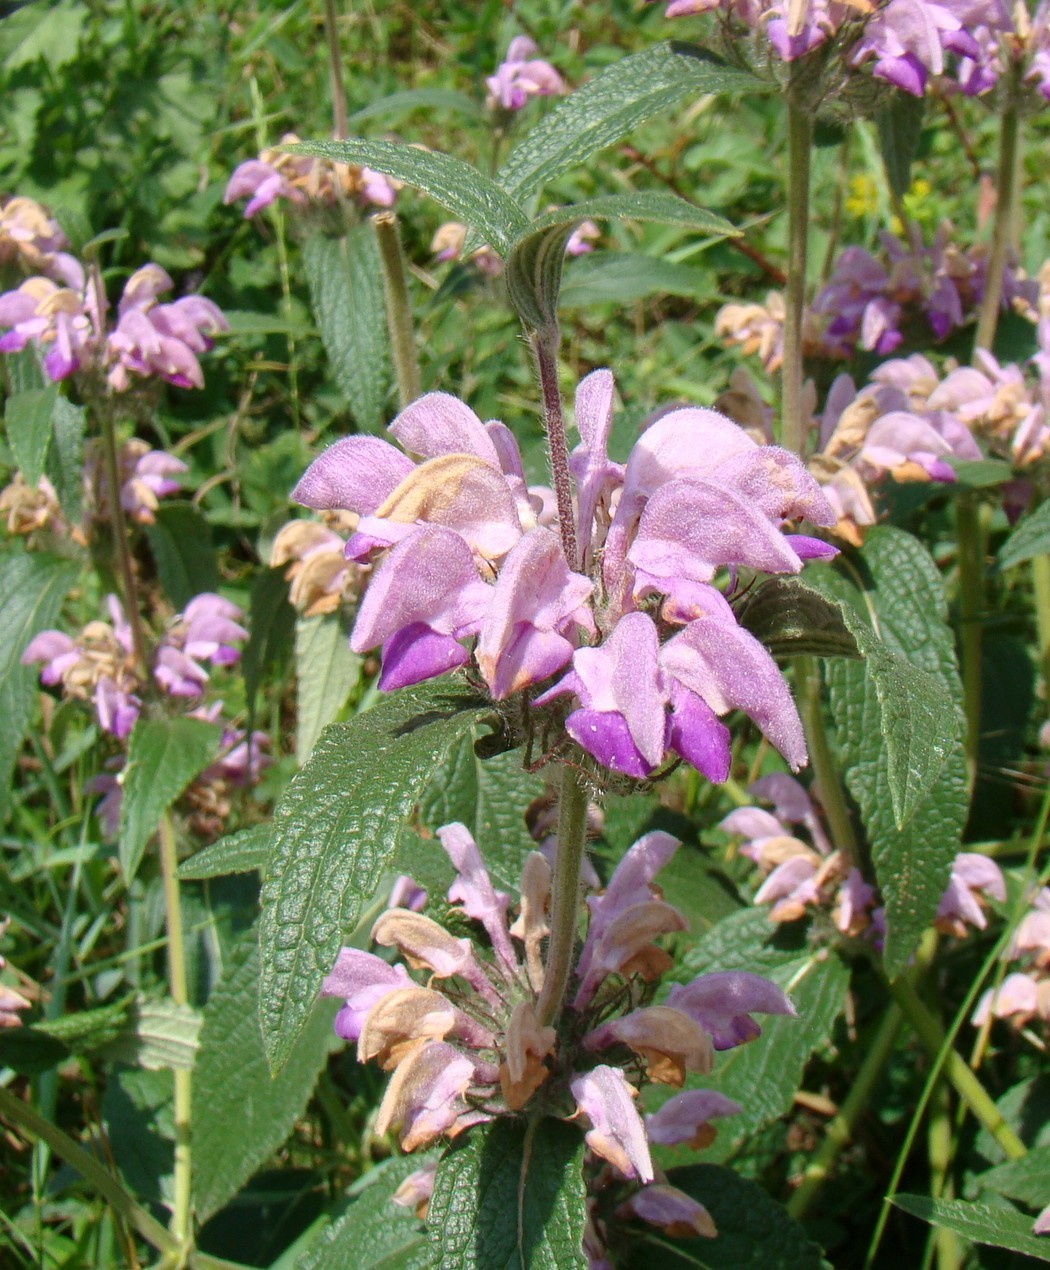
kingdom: Plantae
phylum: Tracheophyta
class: Magnoliopsida
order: Lamiales
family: Lamiaceae
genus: Phlomis
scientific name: Phlomis majkopensis
